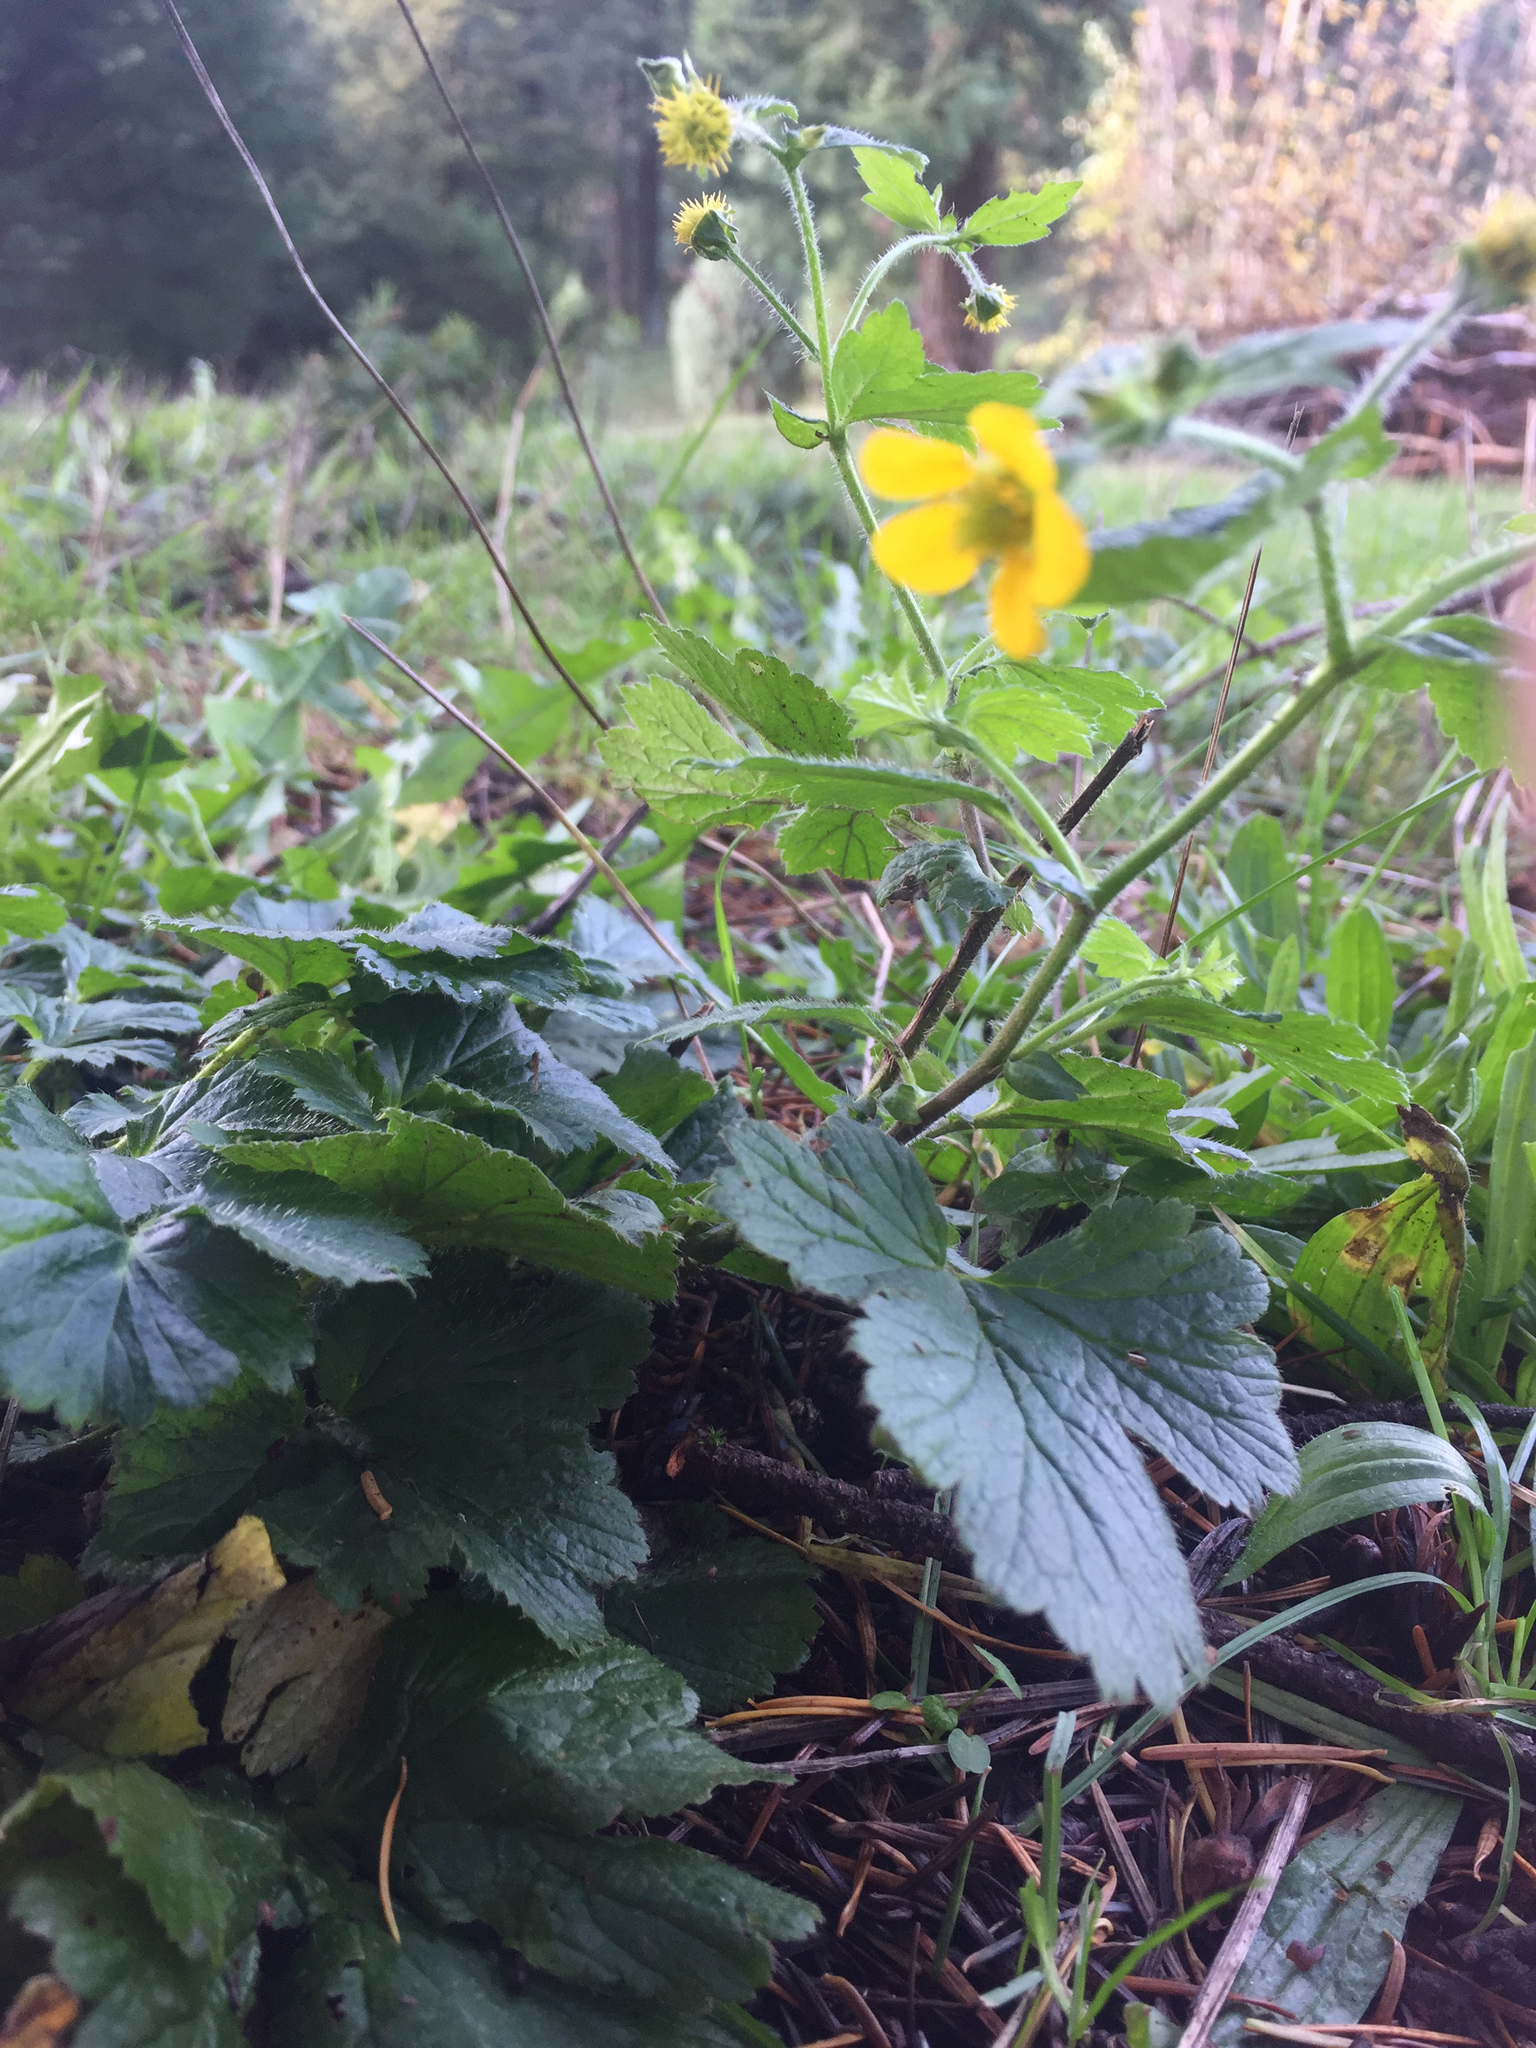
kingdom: Plantae
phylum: Tracheophyta
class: Magnoliopsida
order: Rosales
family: Rosaceae
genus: Geum
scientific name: Geum urbanum
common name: Wood avens
